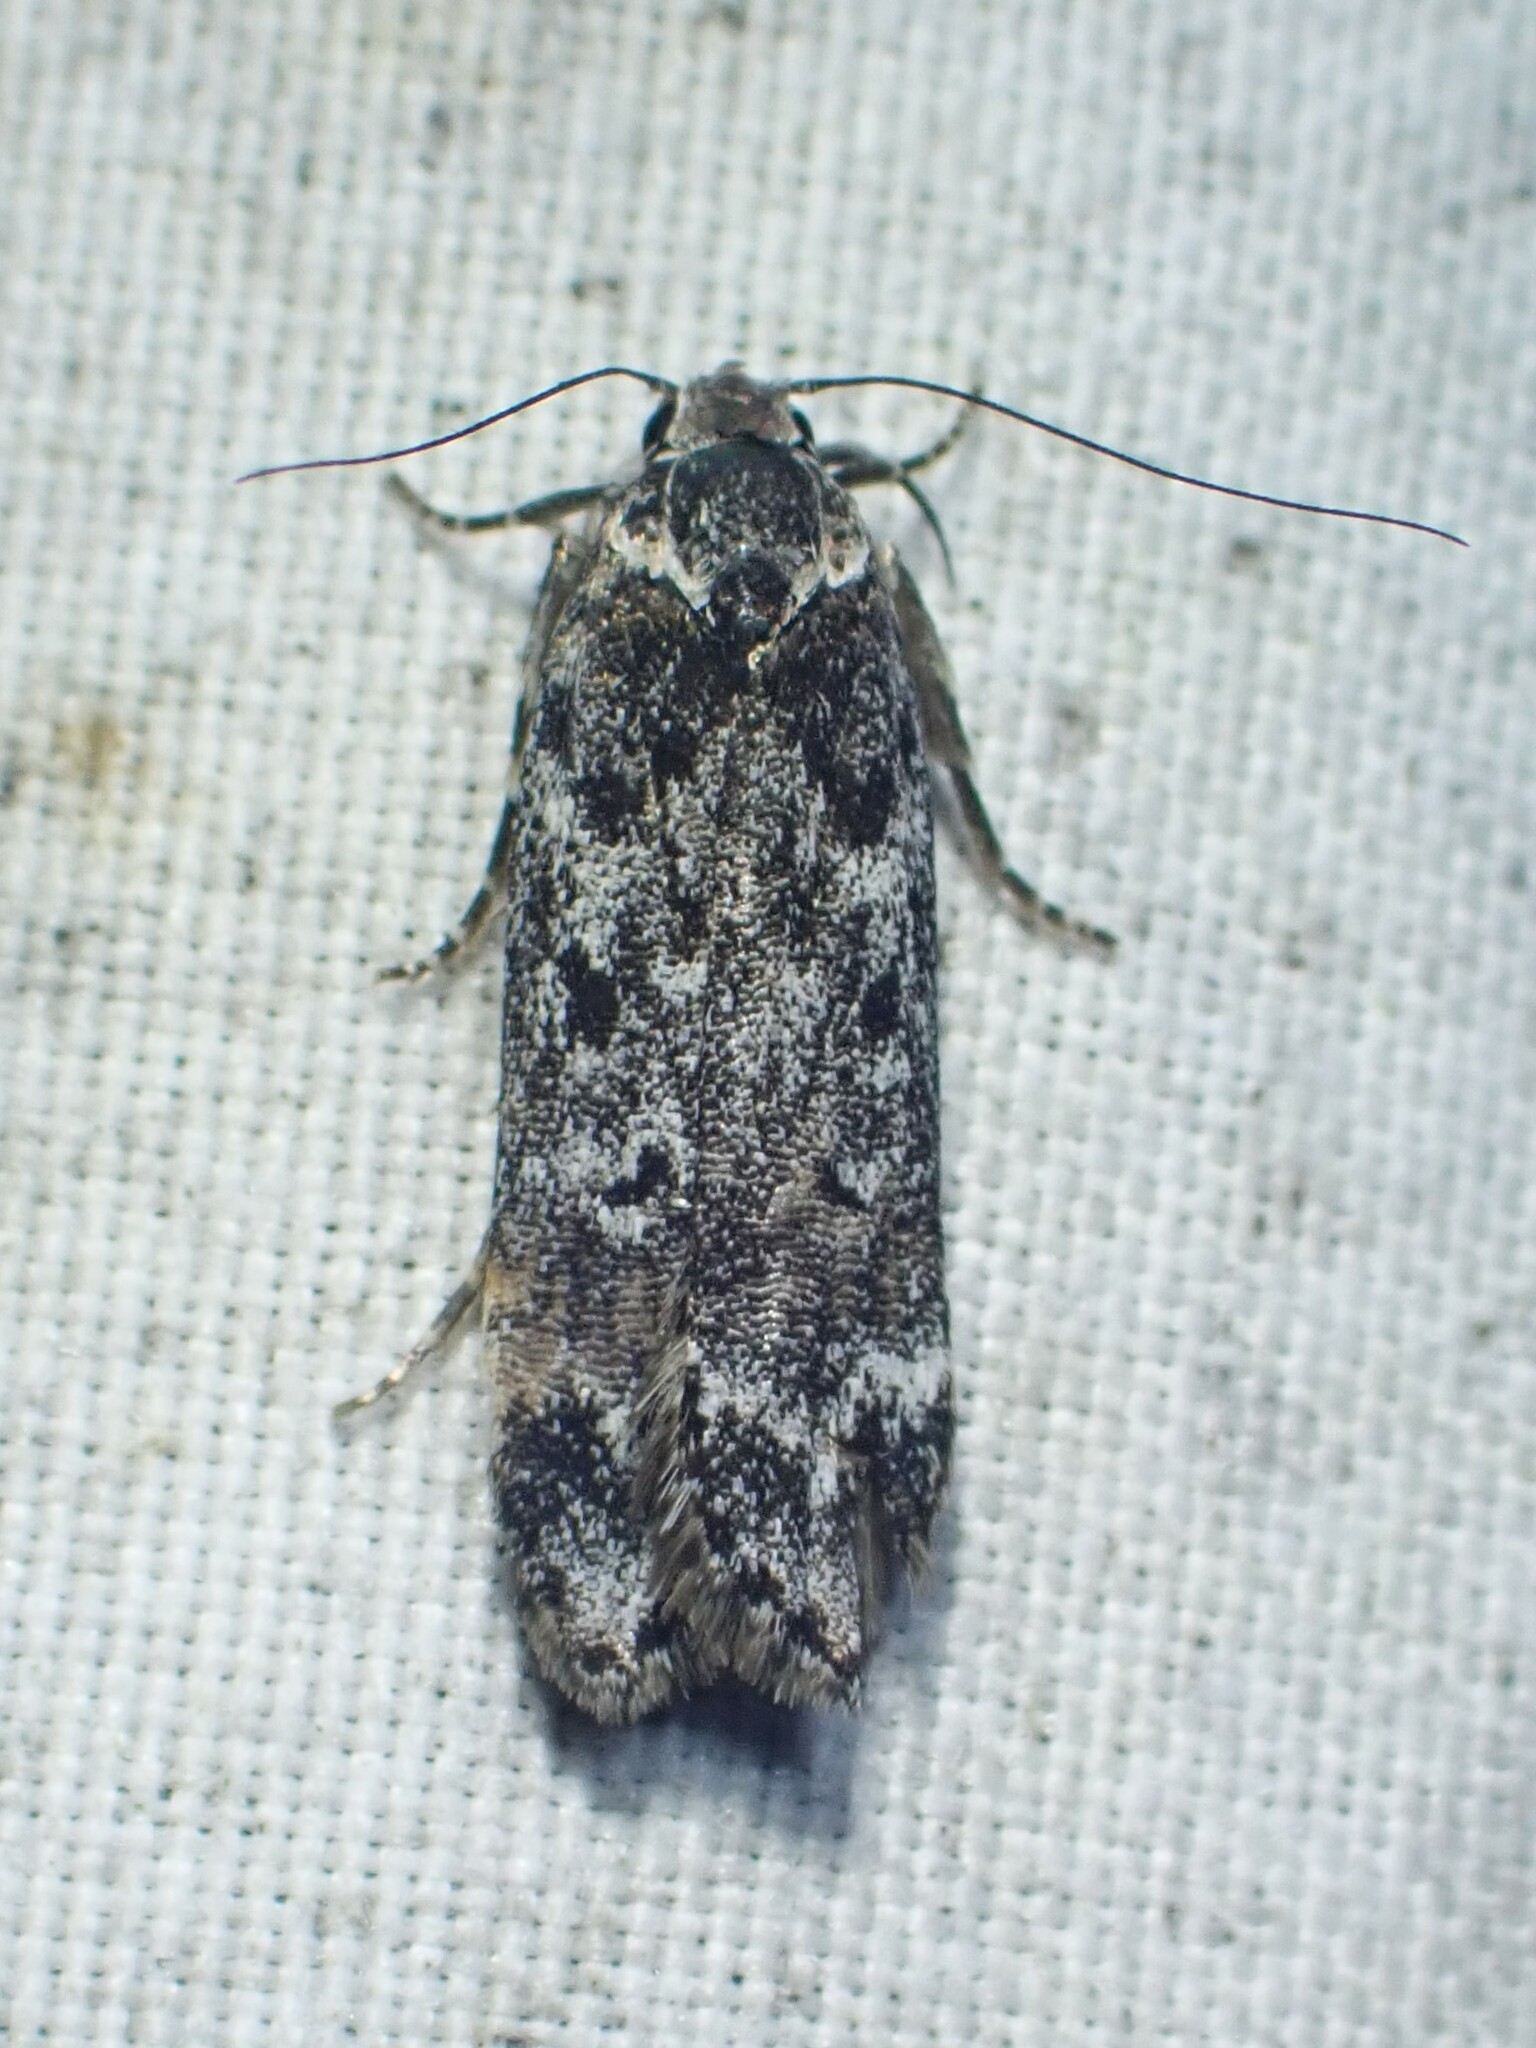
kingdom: Animalia
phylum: Arthropoda
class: Insecta
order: Lepidoptera
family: Gelechiidae
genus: Anacampsis
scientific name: Anacampsis niveopulvella
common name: Pale-headed aspen leafroller moth
